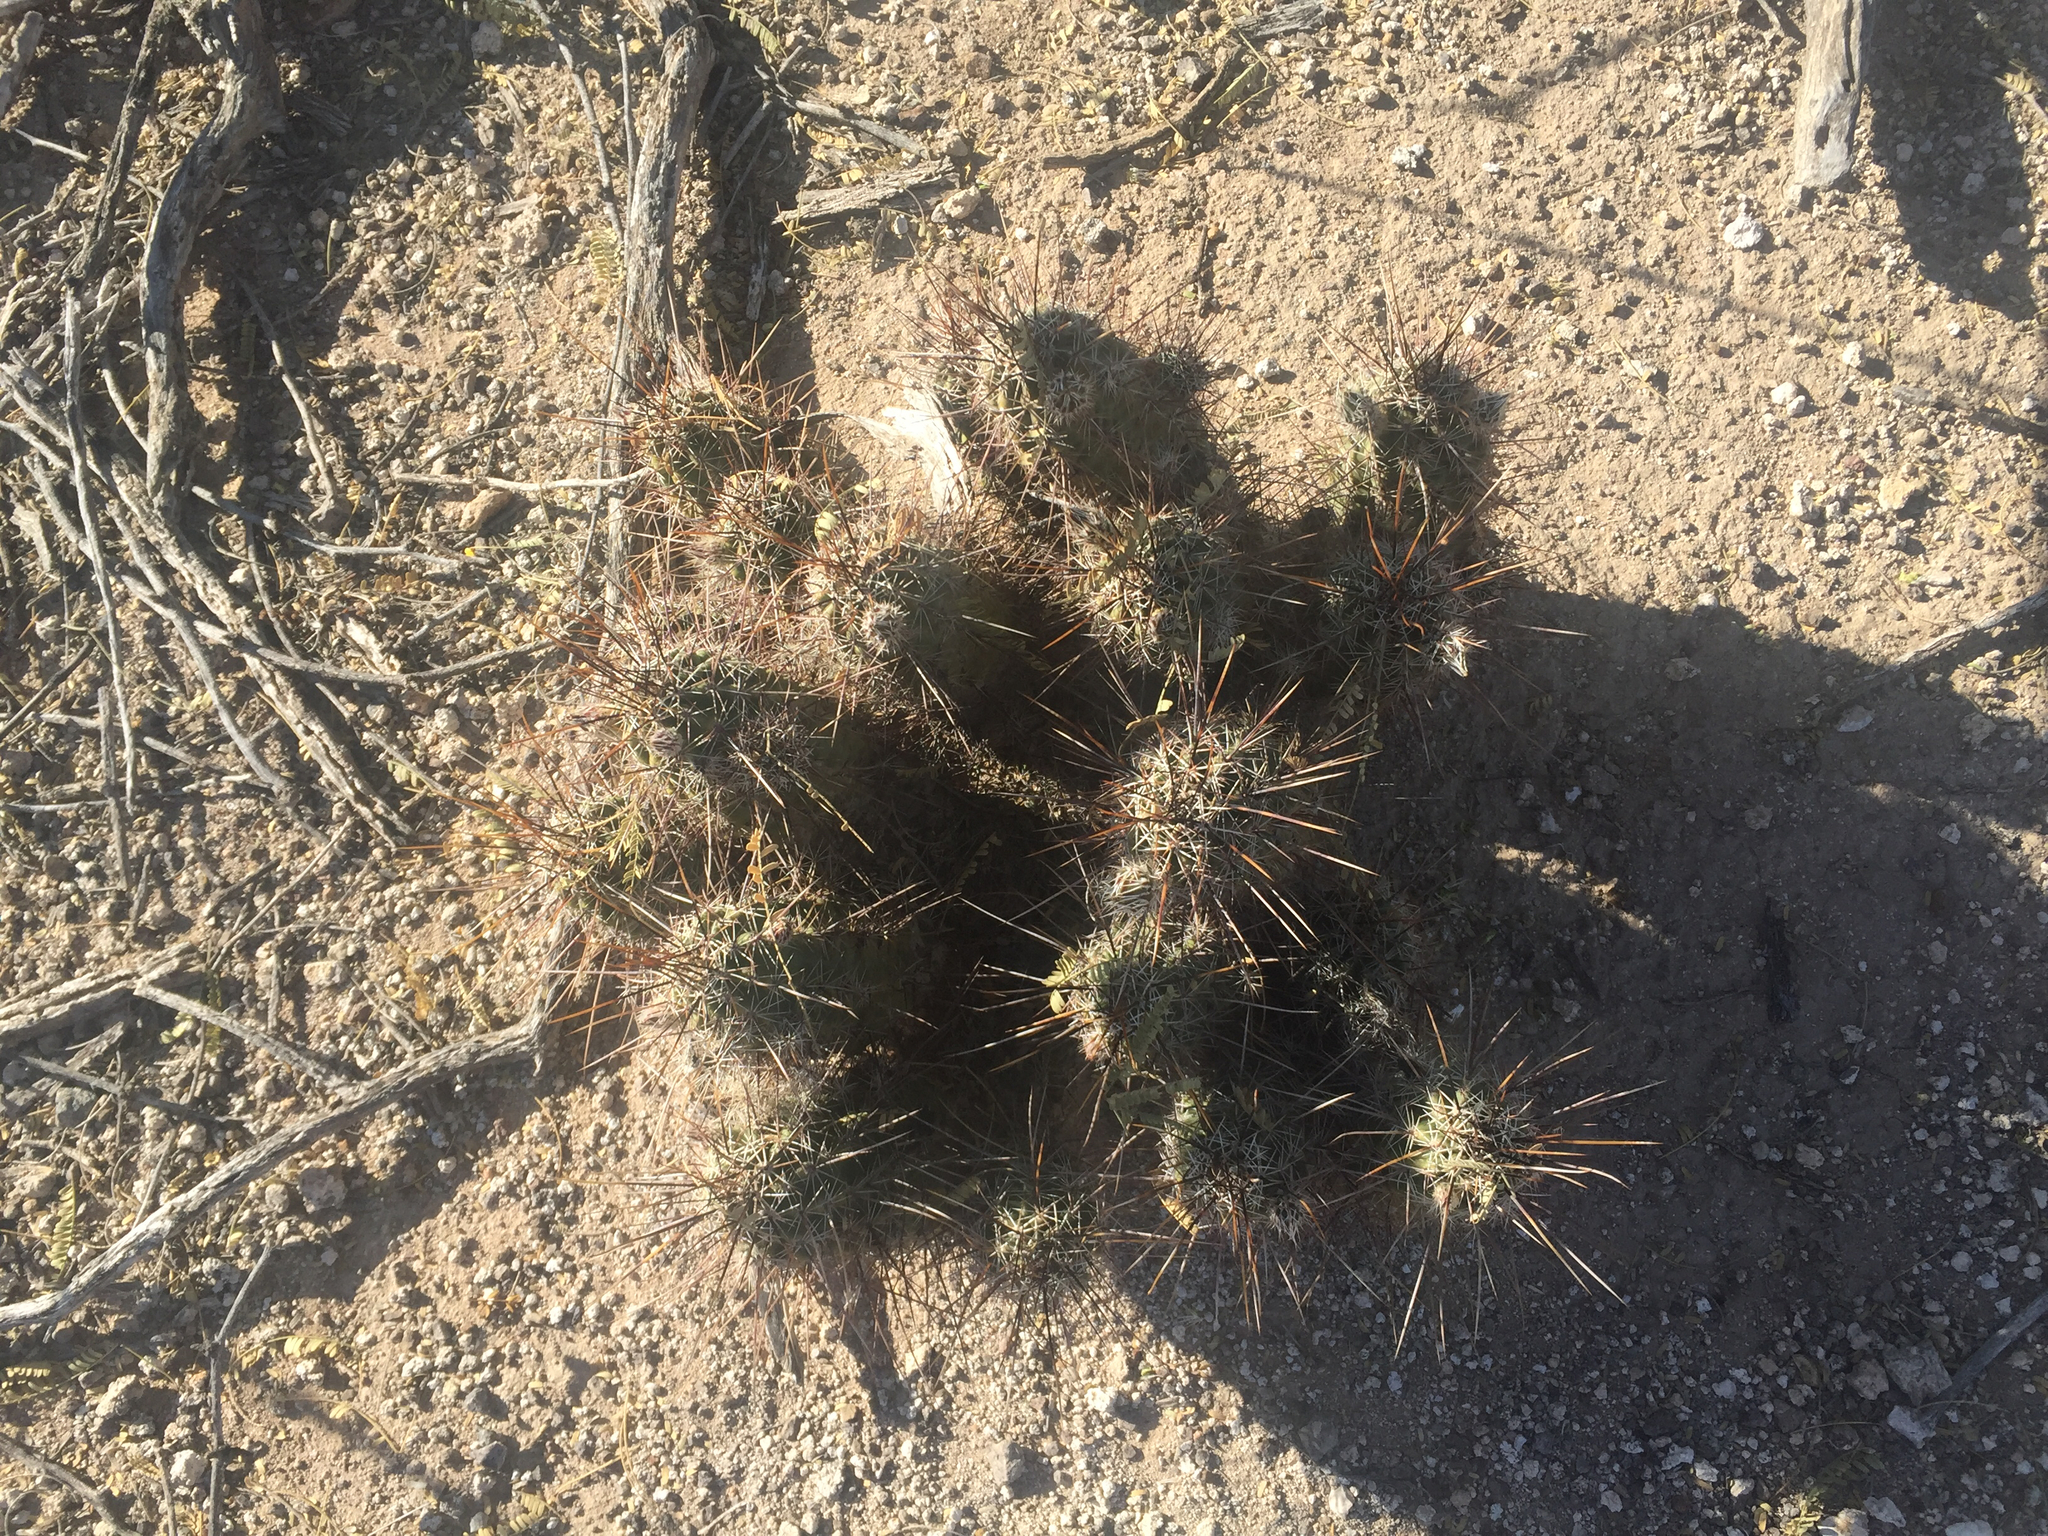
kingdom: Plantae
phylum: Tracheophyta
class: Magnoliopsida
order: Caryophyllales
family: Cactaceae
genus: Echinocereus
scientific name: Echinocereus fasciculatus
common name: Bundle hedgehog
